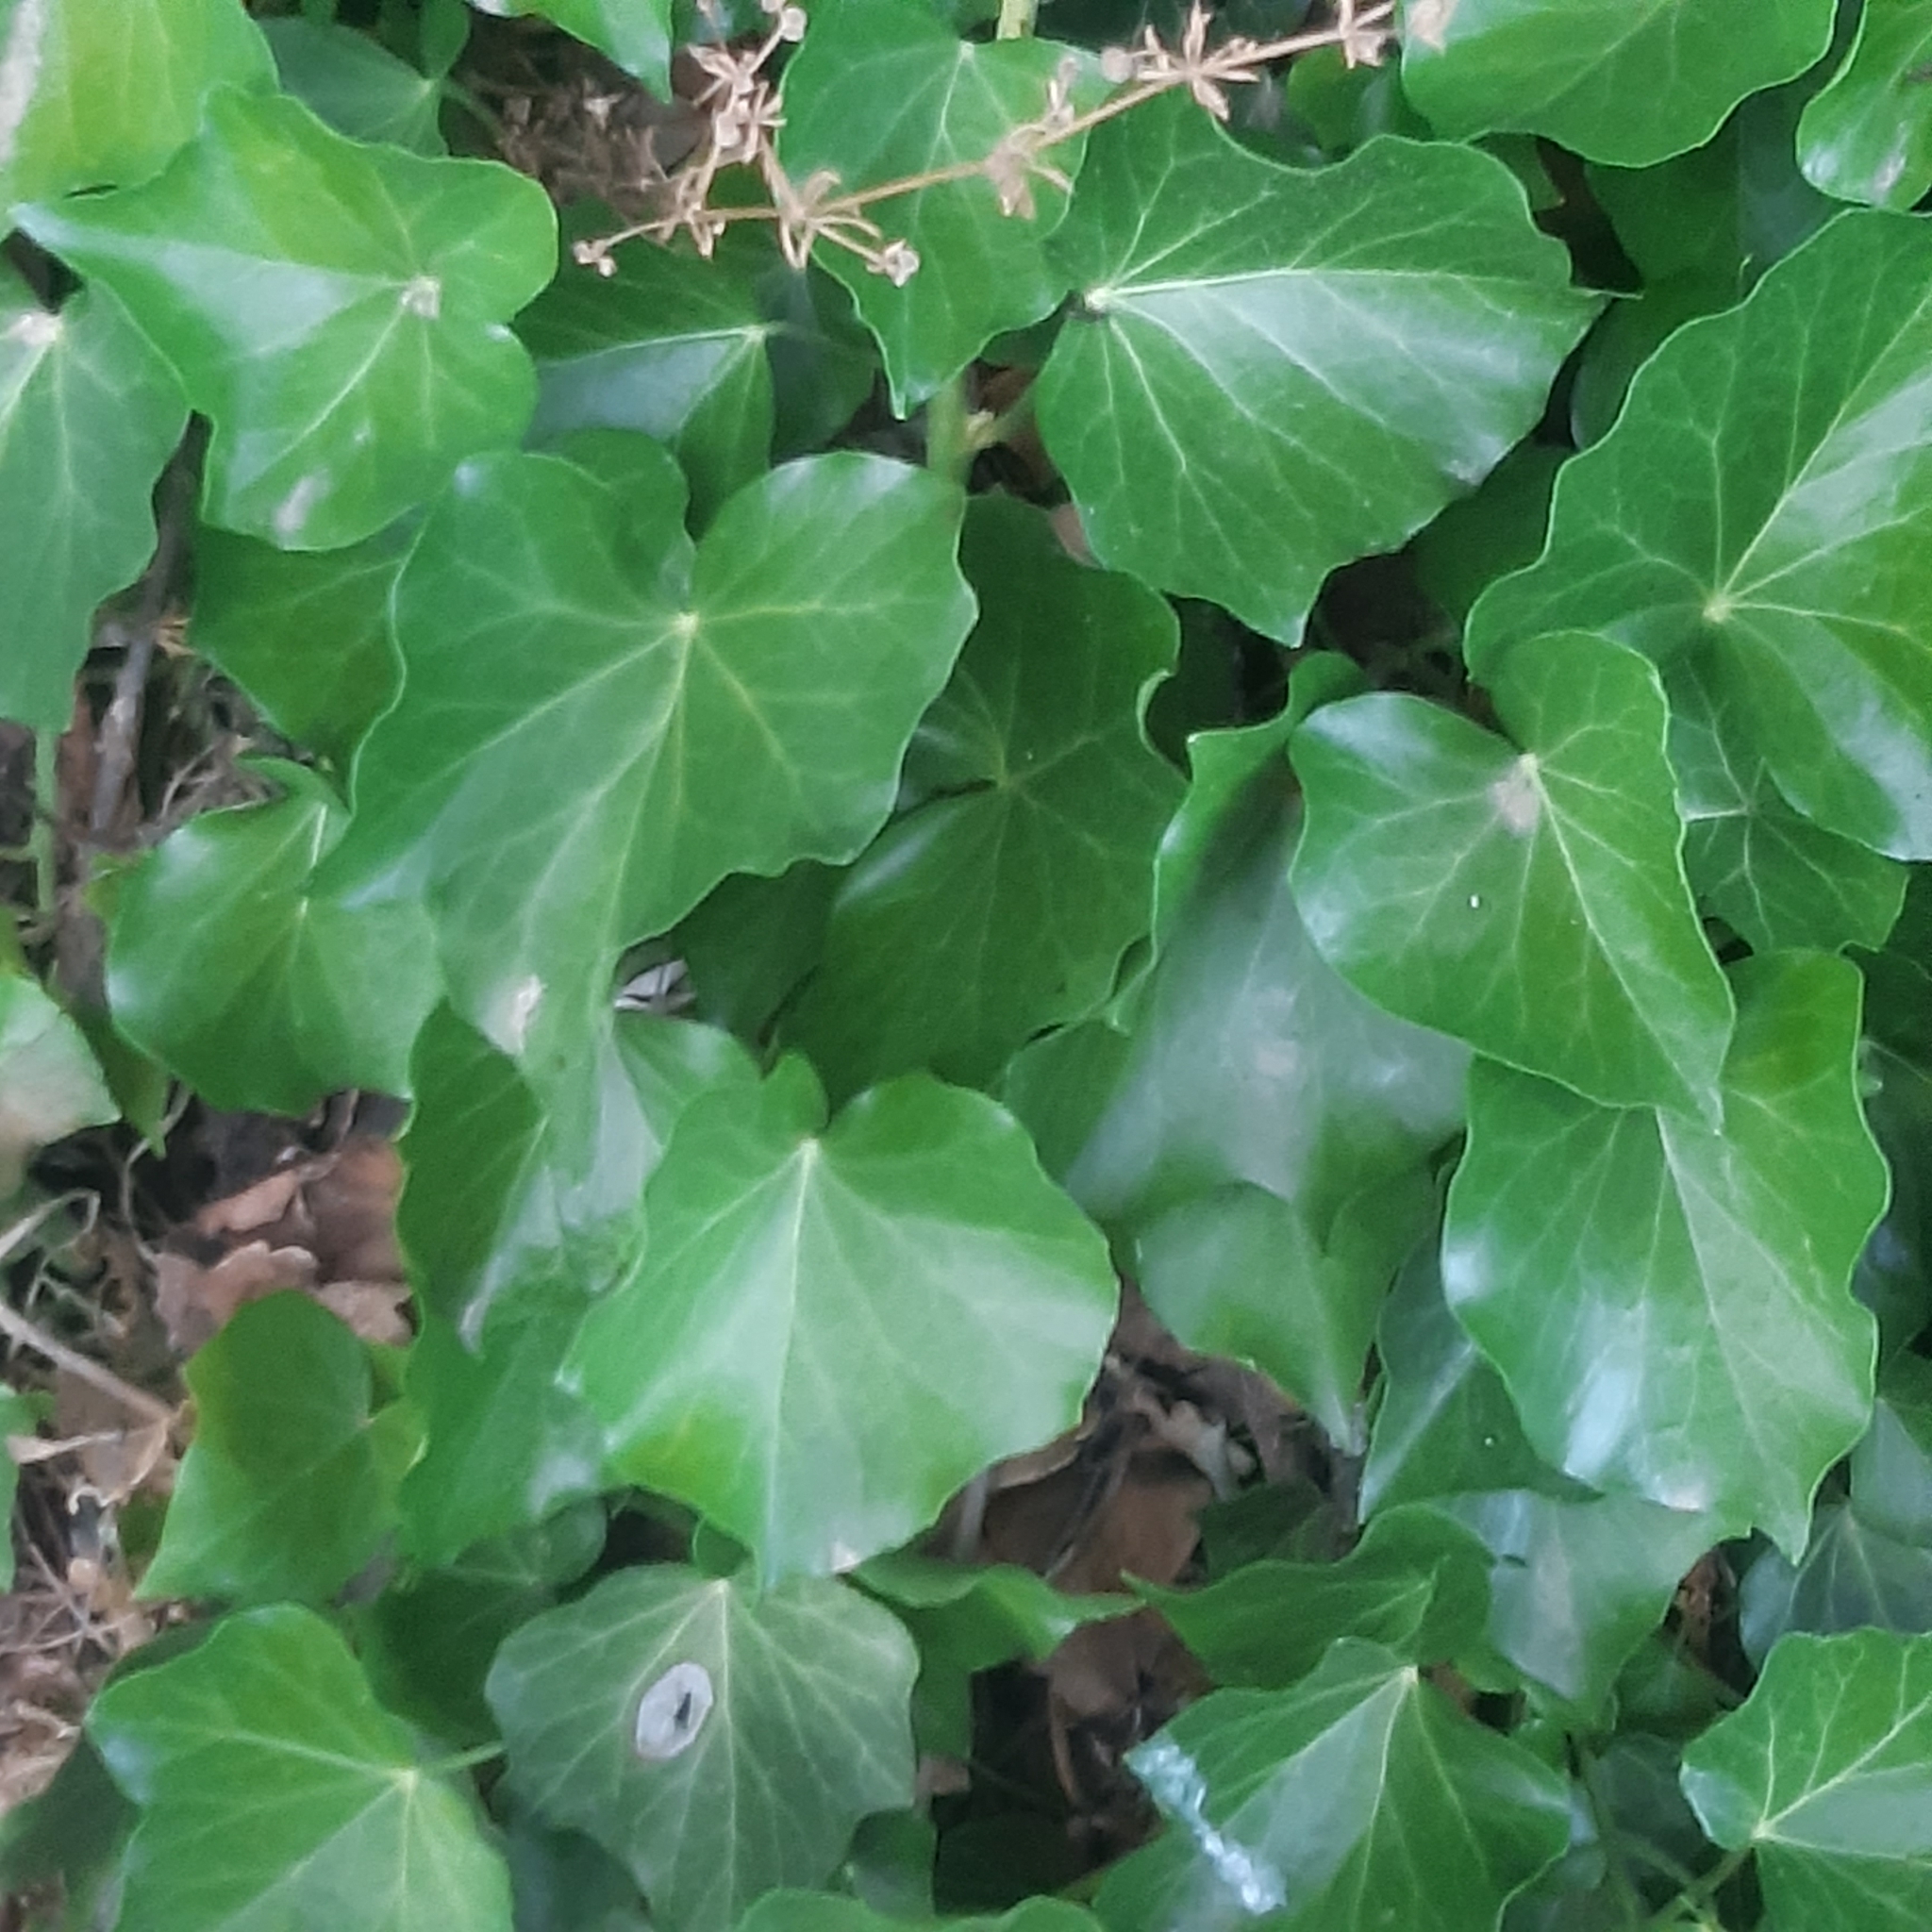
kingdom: Plantae
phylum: Tracheophyta
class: Magnoliopsida
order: Apiales
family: Araliaceae
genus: Hedera
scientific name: Hedera helix
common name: Ivy
